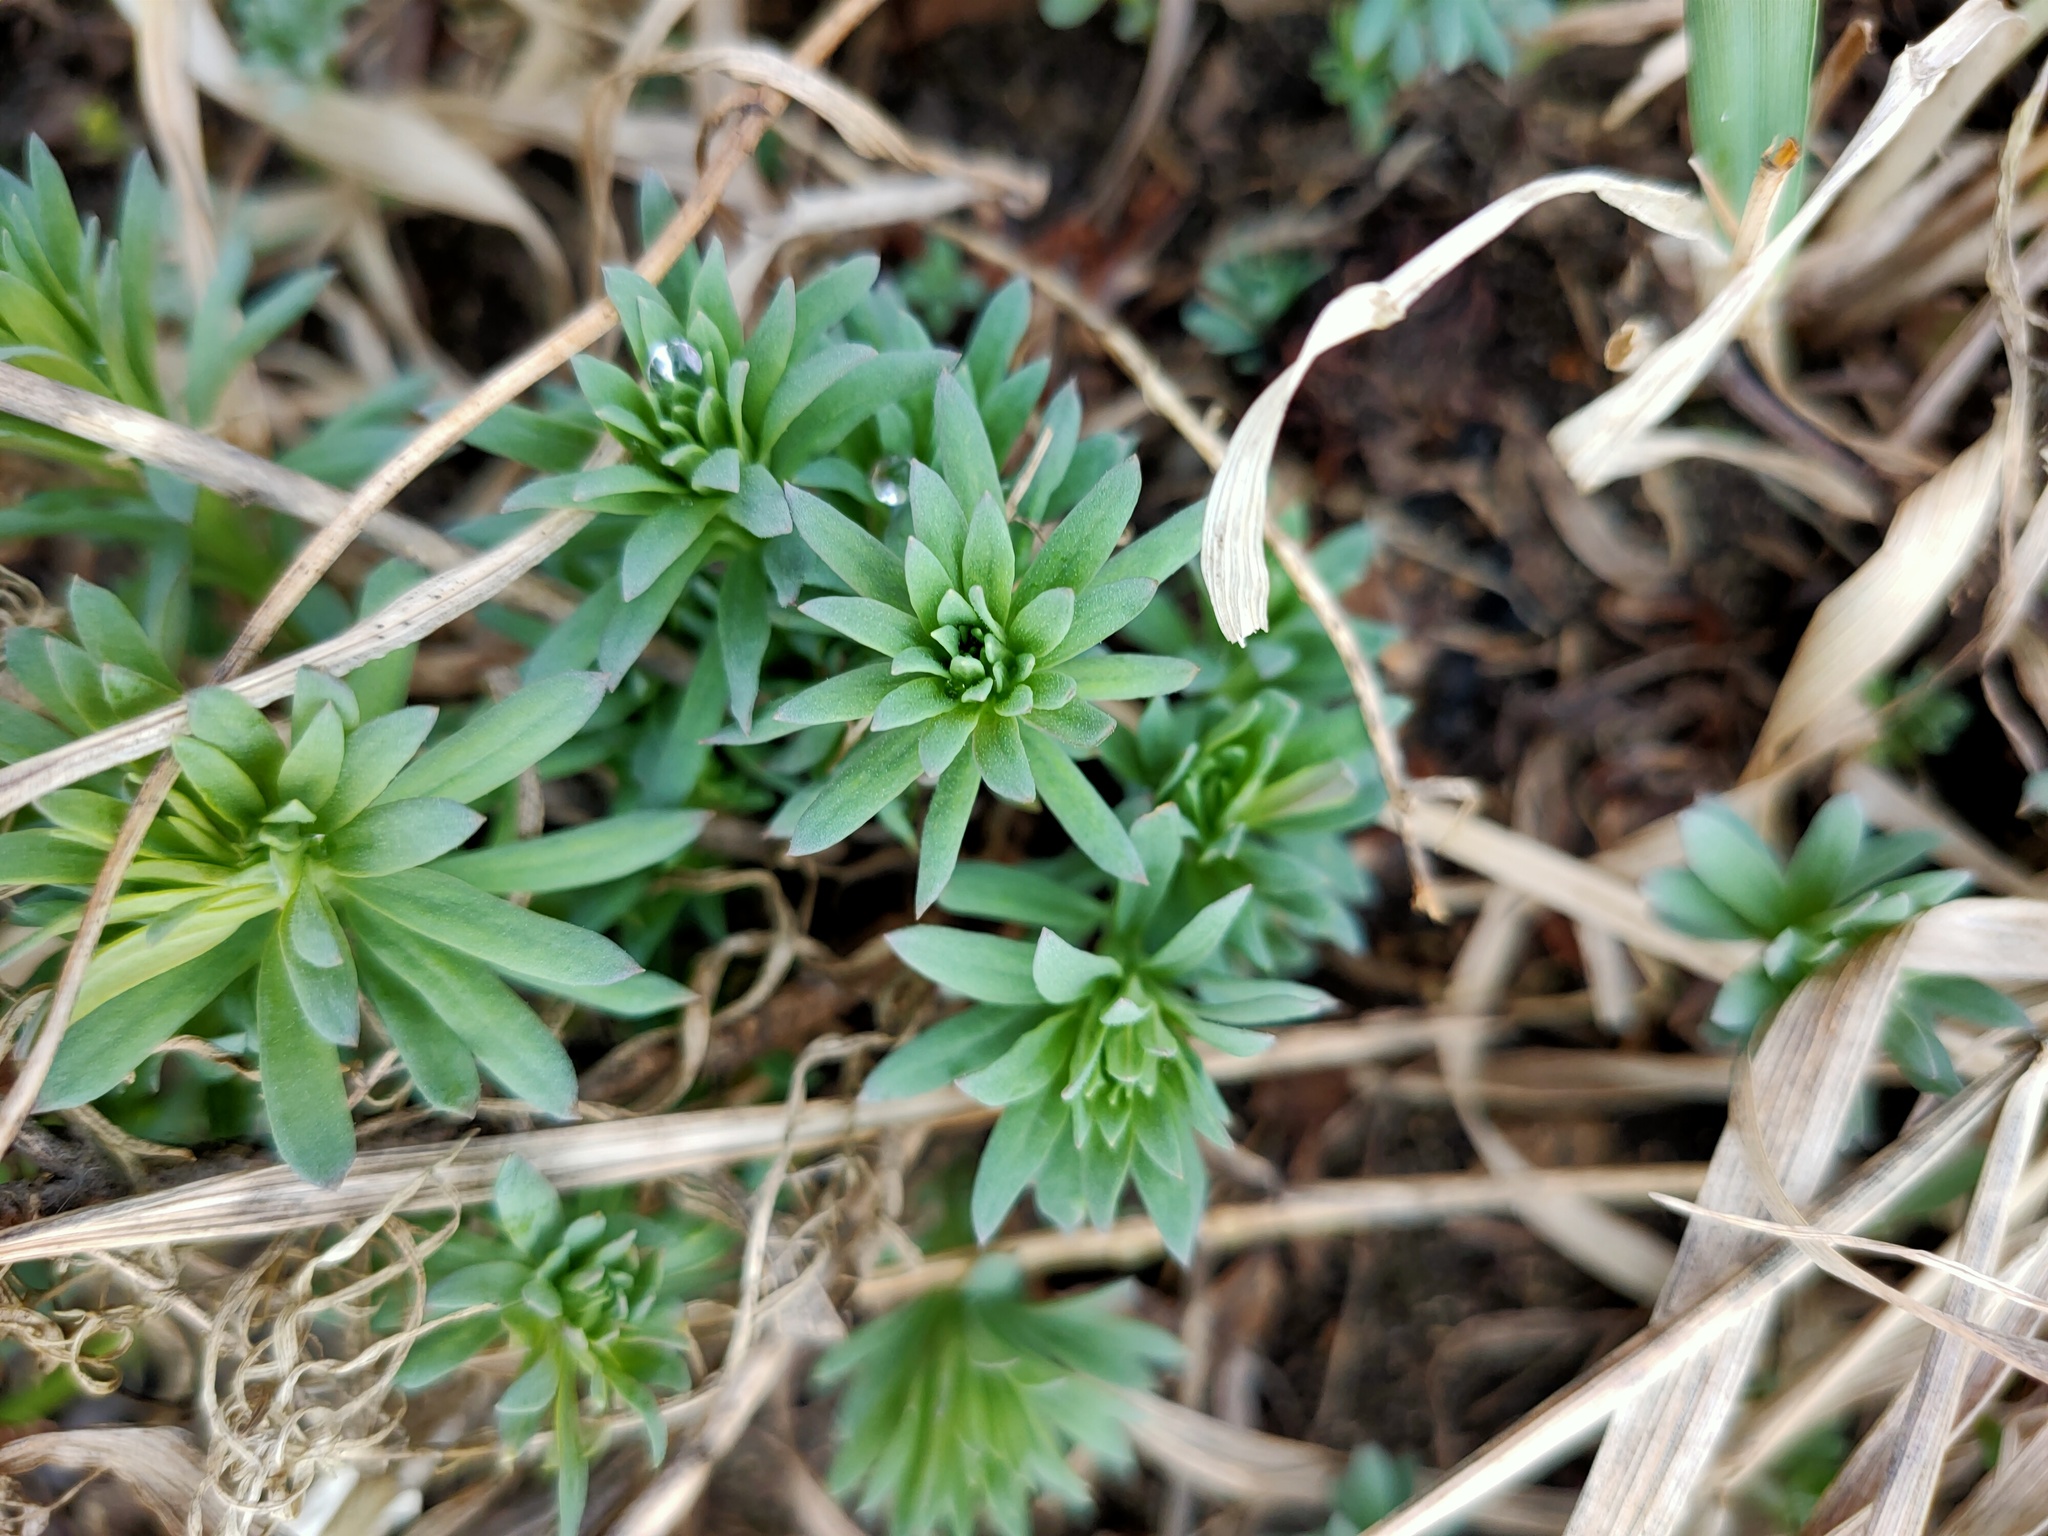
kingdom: Plantae
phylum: Tracheophyta
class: Magnoliopsida
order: Lamiales
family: Plantaginaceae
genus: Linaria
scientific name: Linaria vulgaris
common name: Butter and eggs
